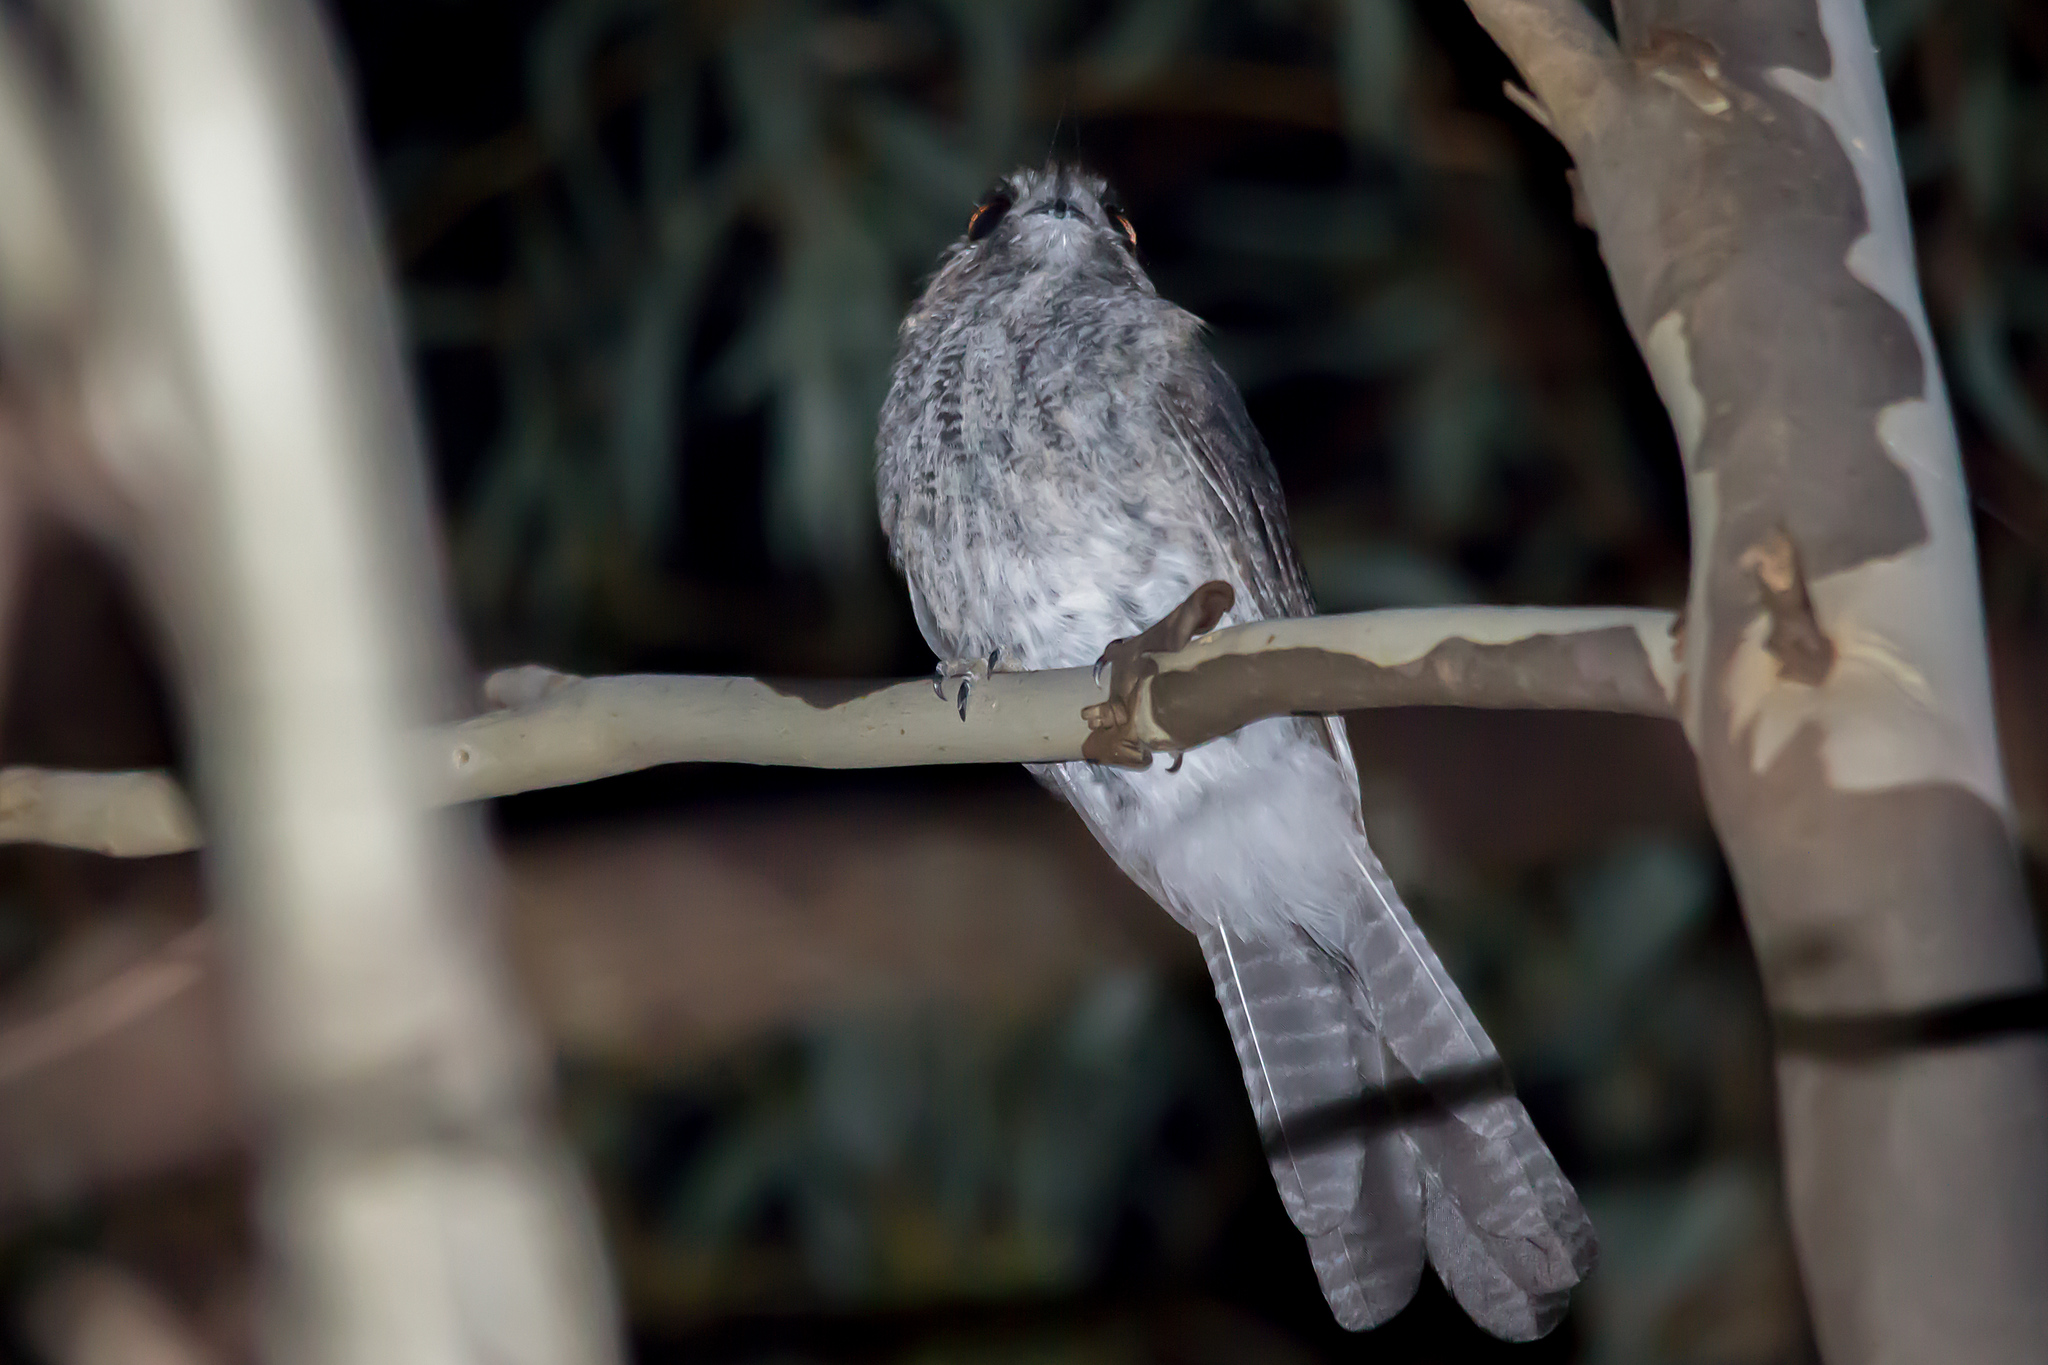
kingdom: Animalia
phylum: Chordata
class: Aves
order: Apodiformes
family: Aegothelidae
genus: Aegotheles
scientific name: Aegotheles cristatus
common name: Australian owlet-nightjar
